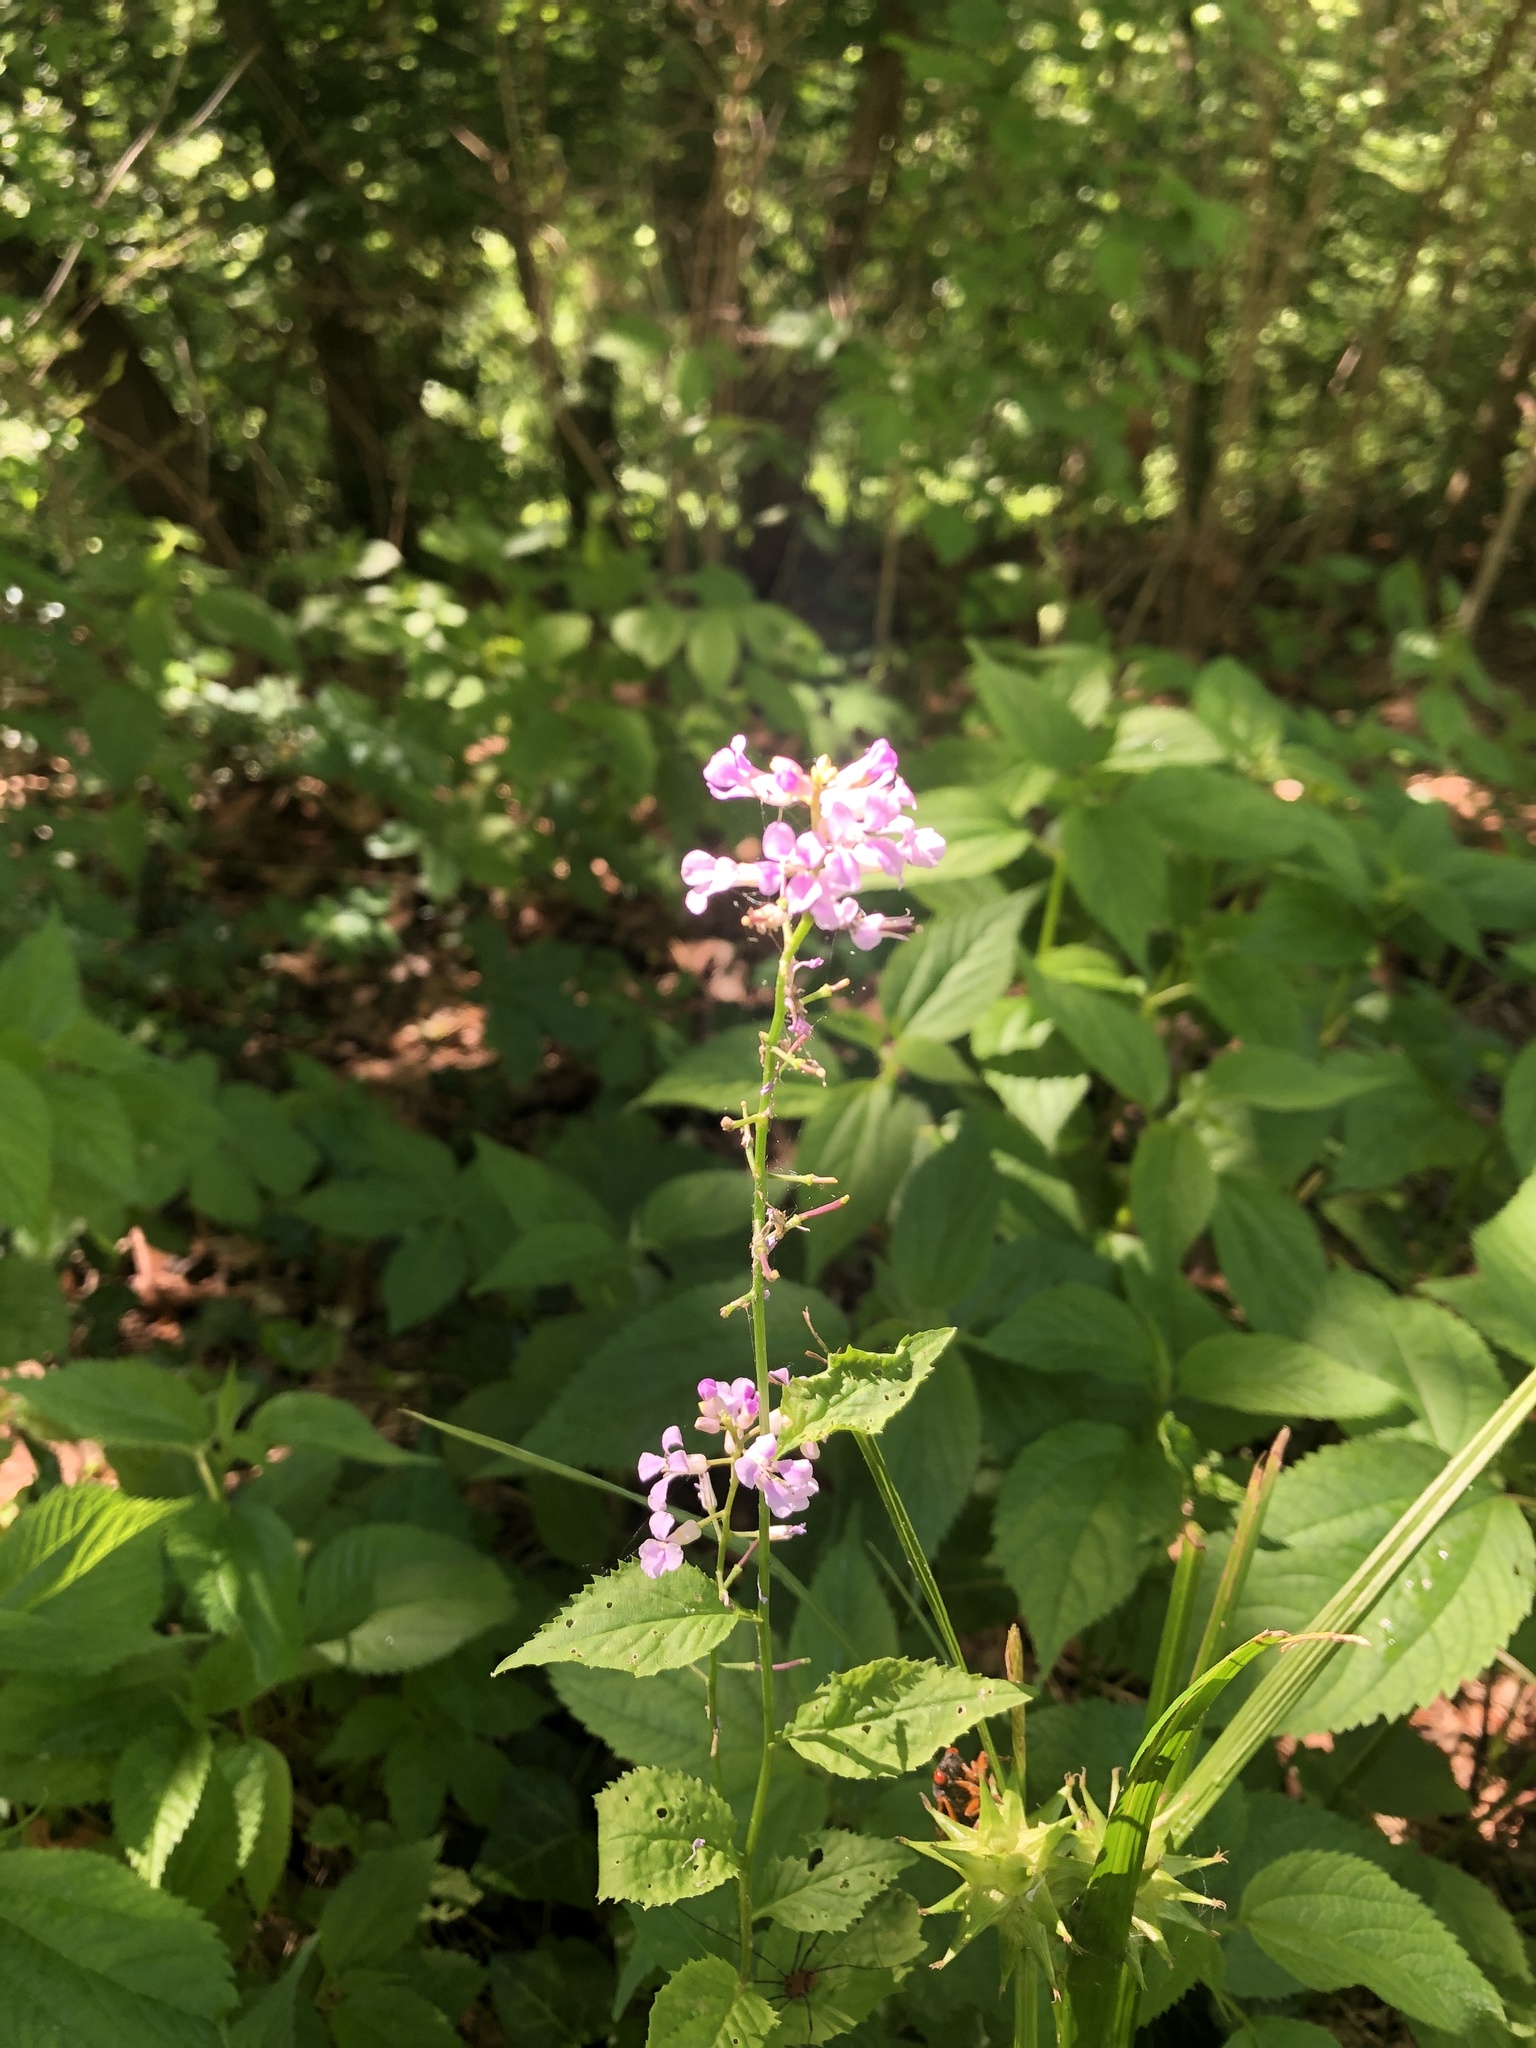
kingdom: Plantae
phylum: Tracheophyta
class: Magnoliopsida
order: Brassicales
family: Brassicaceae
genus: Iodanthus
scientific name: Iodanthus pinnatifidus
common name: Violet rocket
